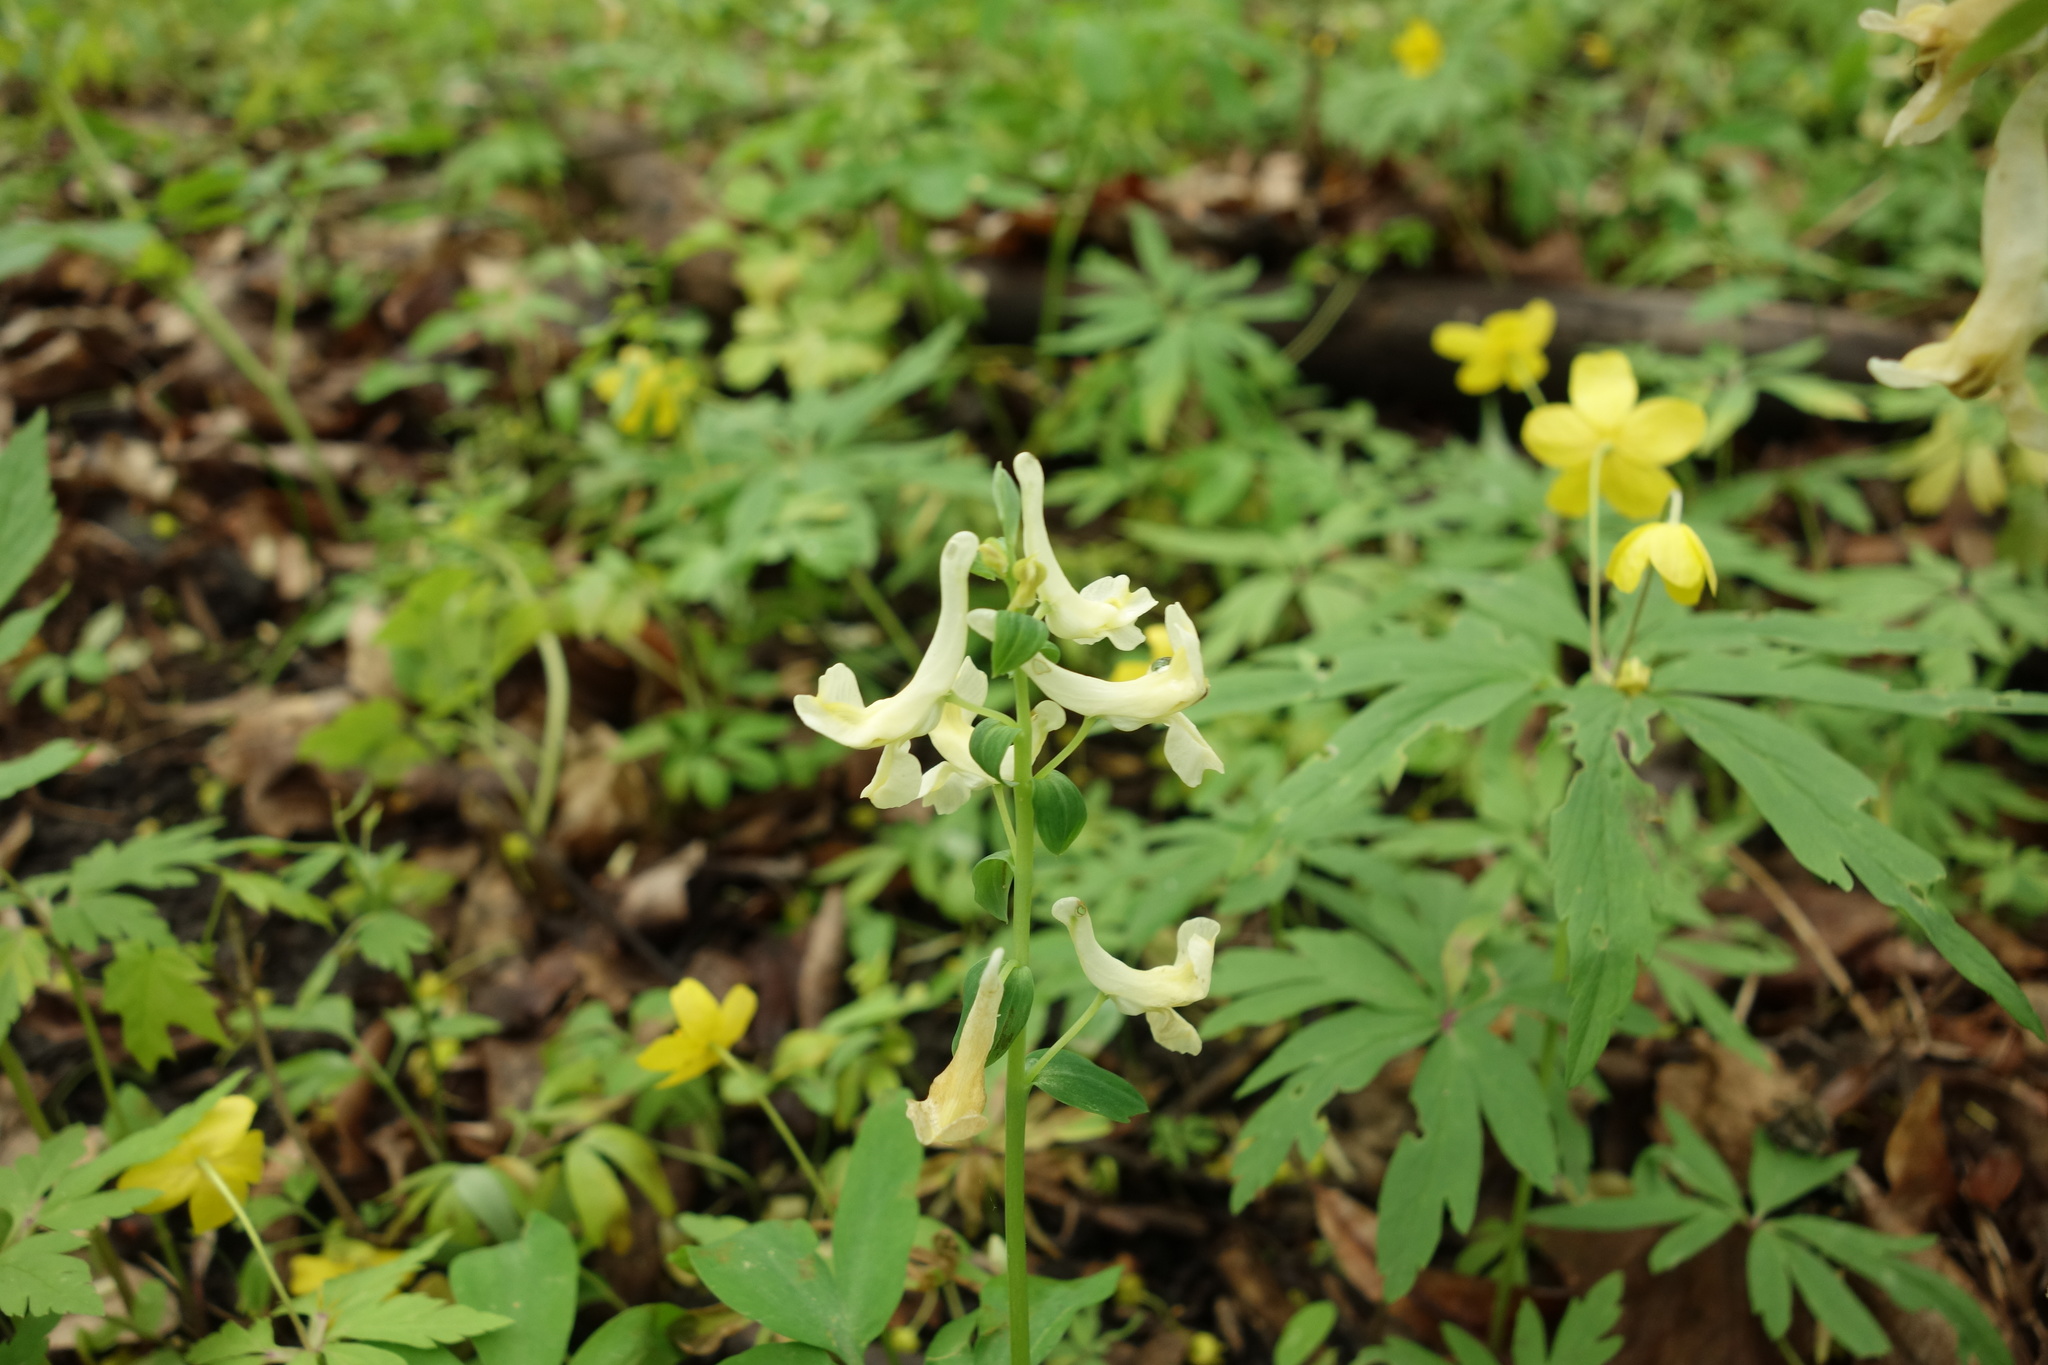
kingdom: Plantae
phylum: Tracheophyta
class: Magnoliopsida
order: Ranunculales
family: Papaveraceae
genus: Corydalis
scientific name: Corydalis cava
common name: Hollowroot
